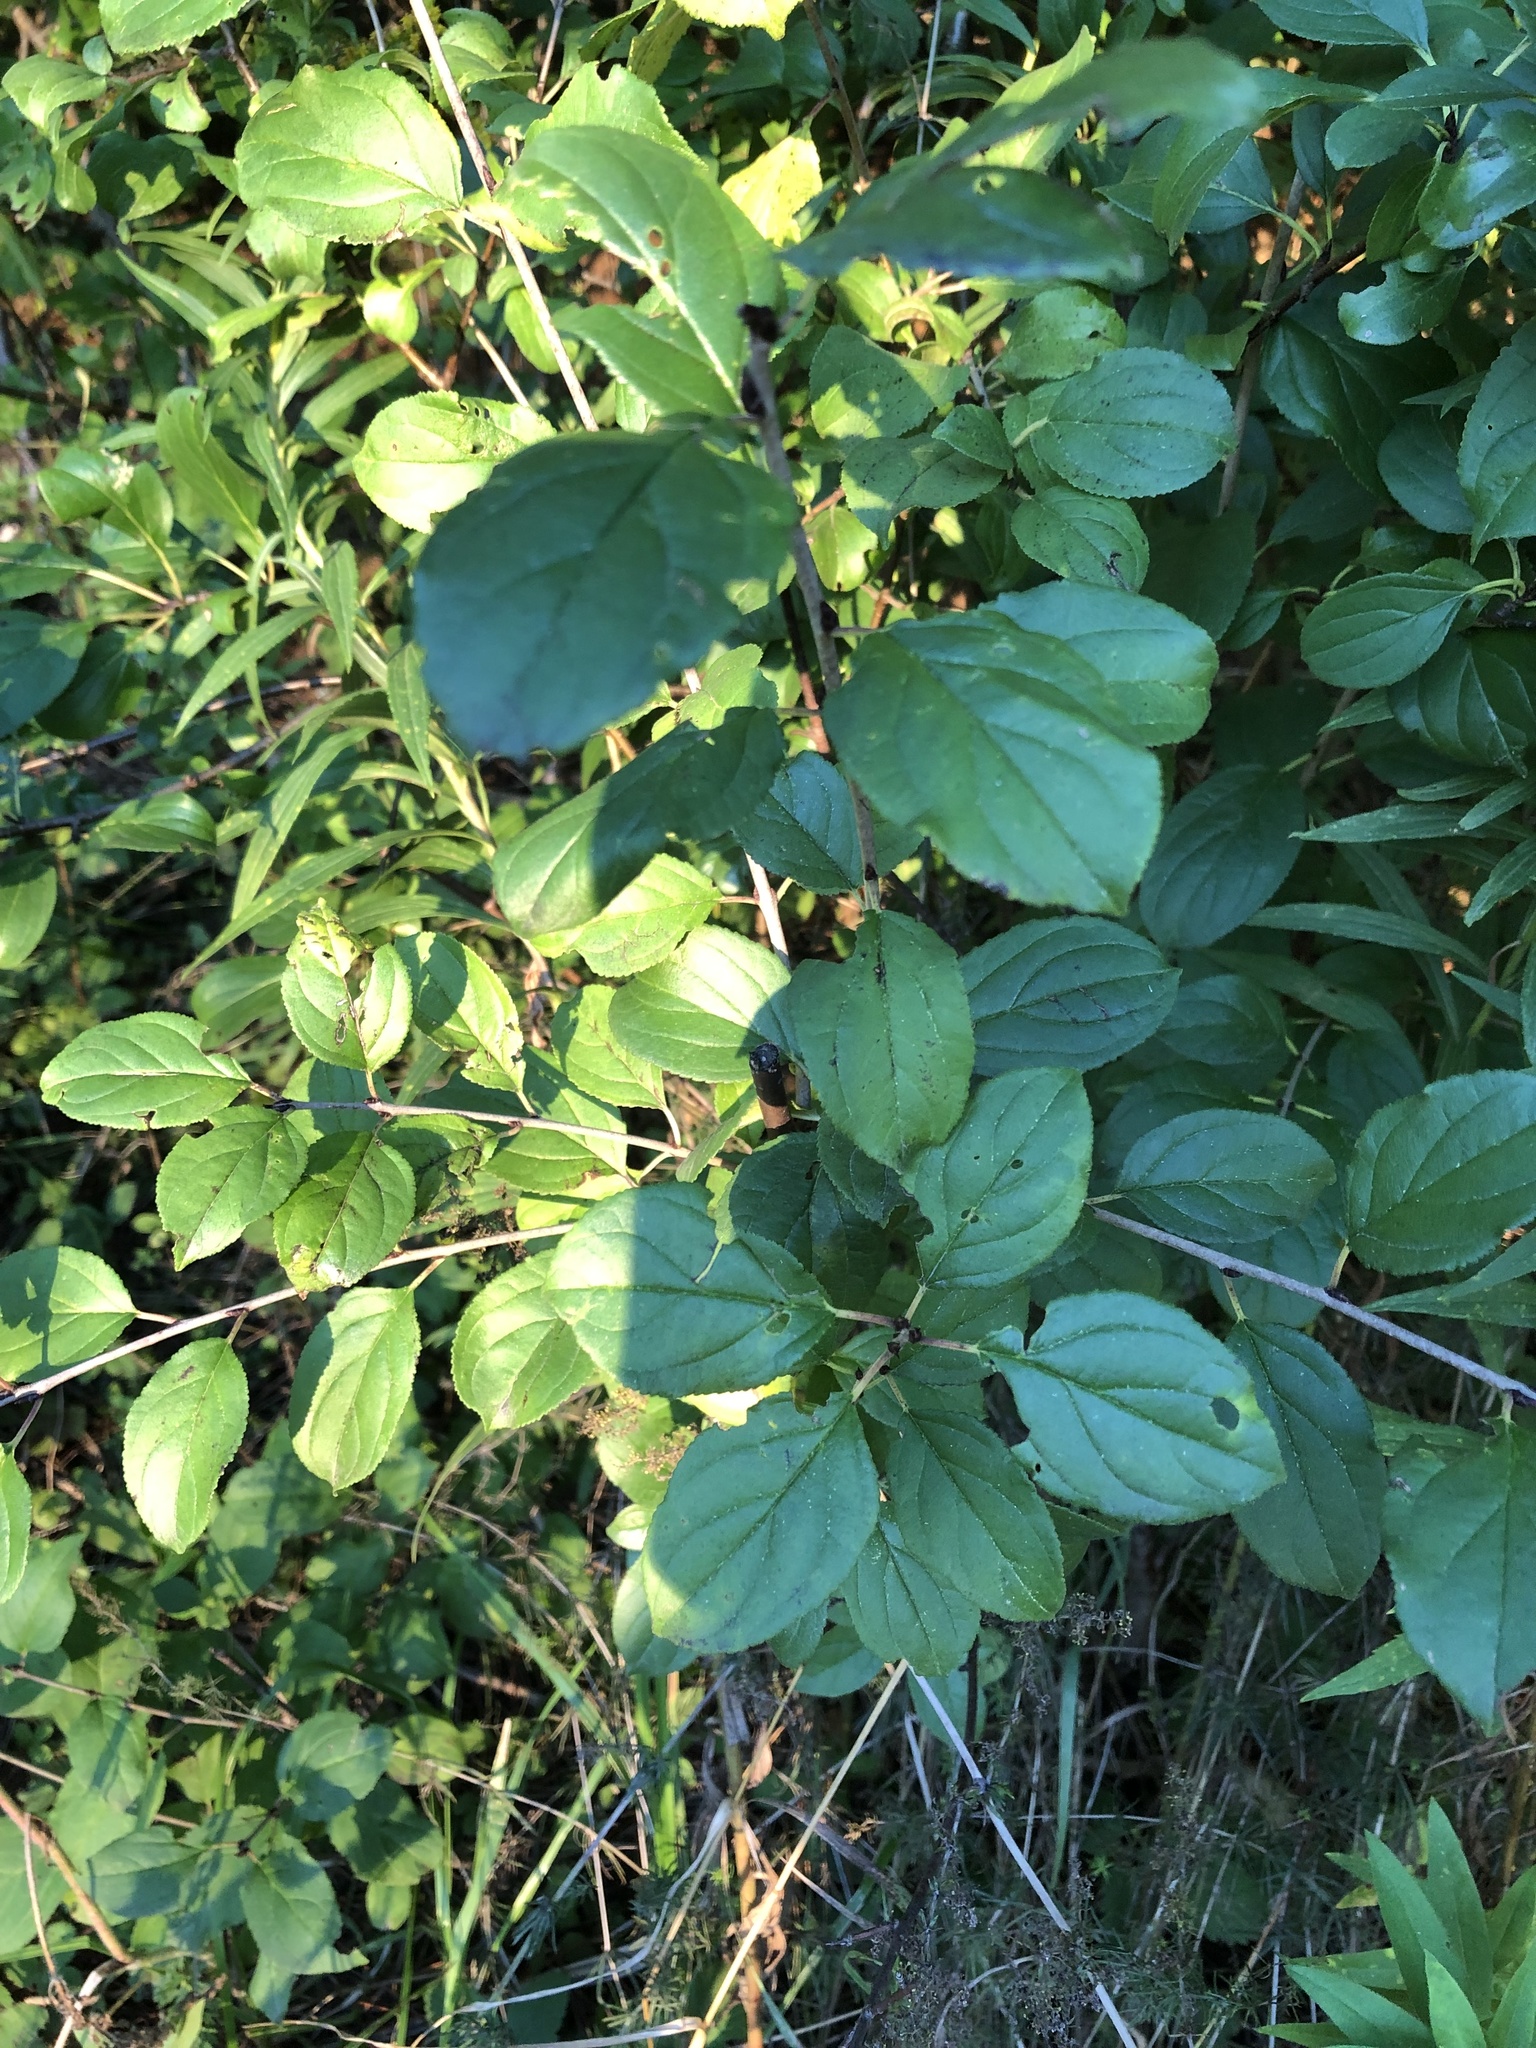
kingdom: Plantae
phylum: Tracheophyta
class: Magnoliopsida
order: Rosales
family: Rhamnaceae
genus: Rhamnus
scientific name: Rhamnus cathartica
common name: Common buckthorn
